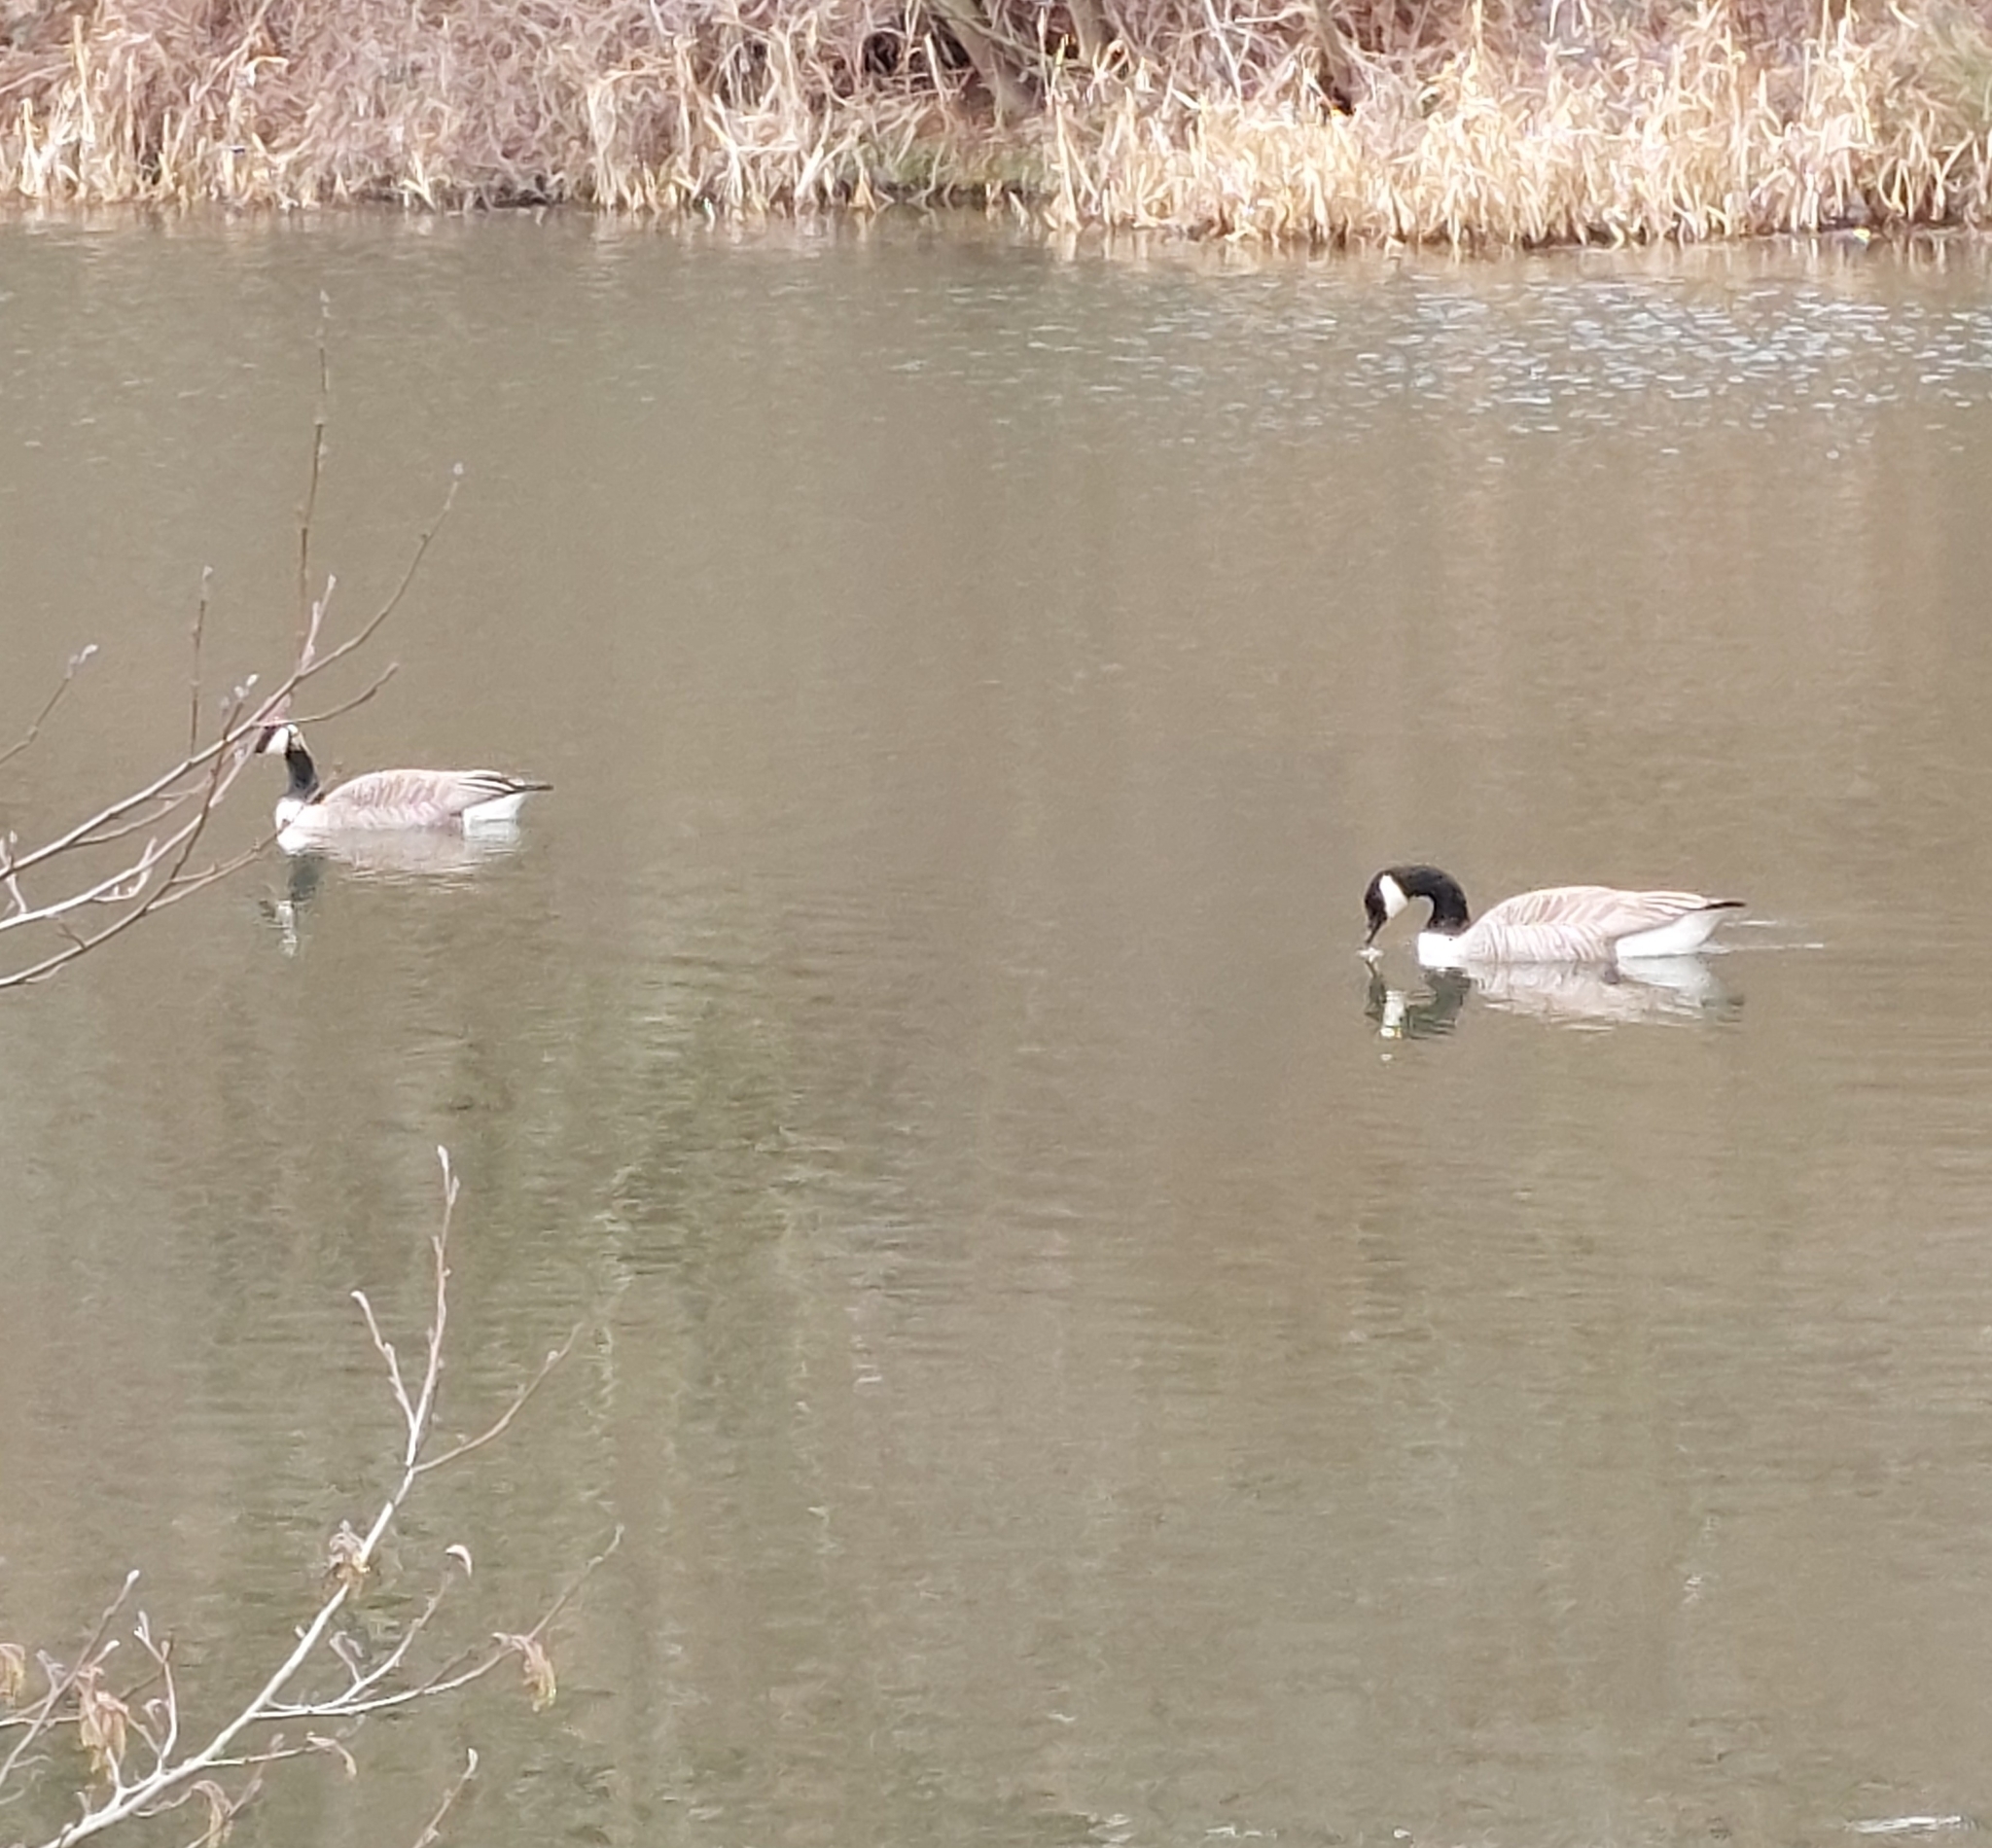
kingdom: Animalia
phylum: Chordata
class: Aves
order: Anseriformes
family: Anatidae
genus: Branta
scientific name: Branta canadensis
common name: Canada goose
